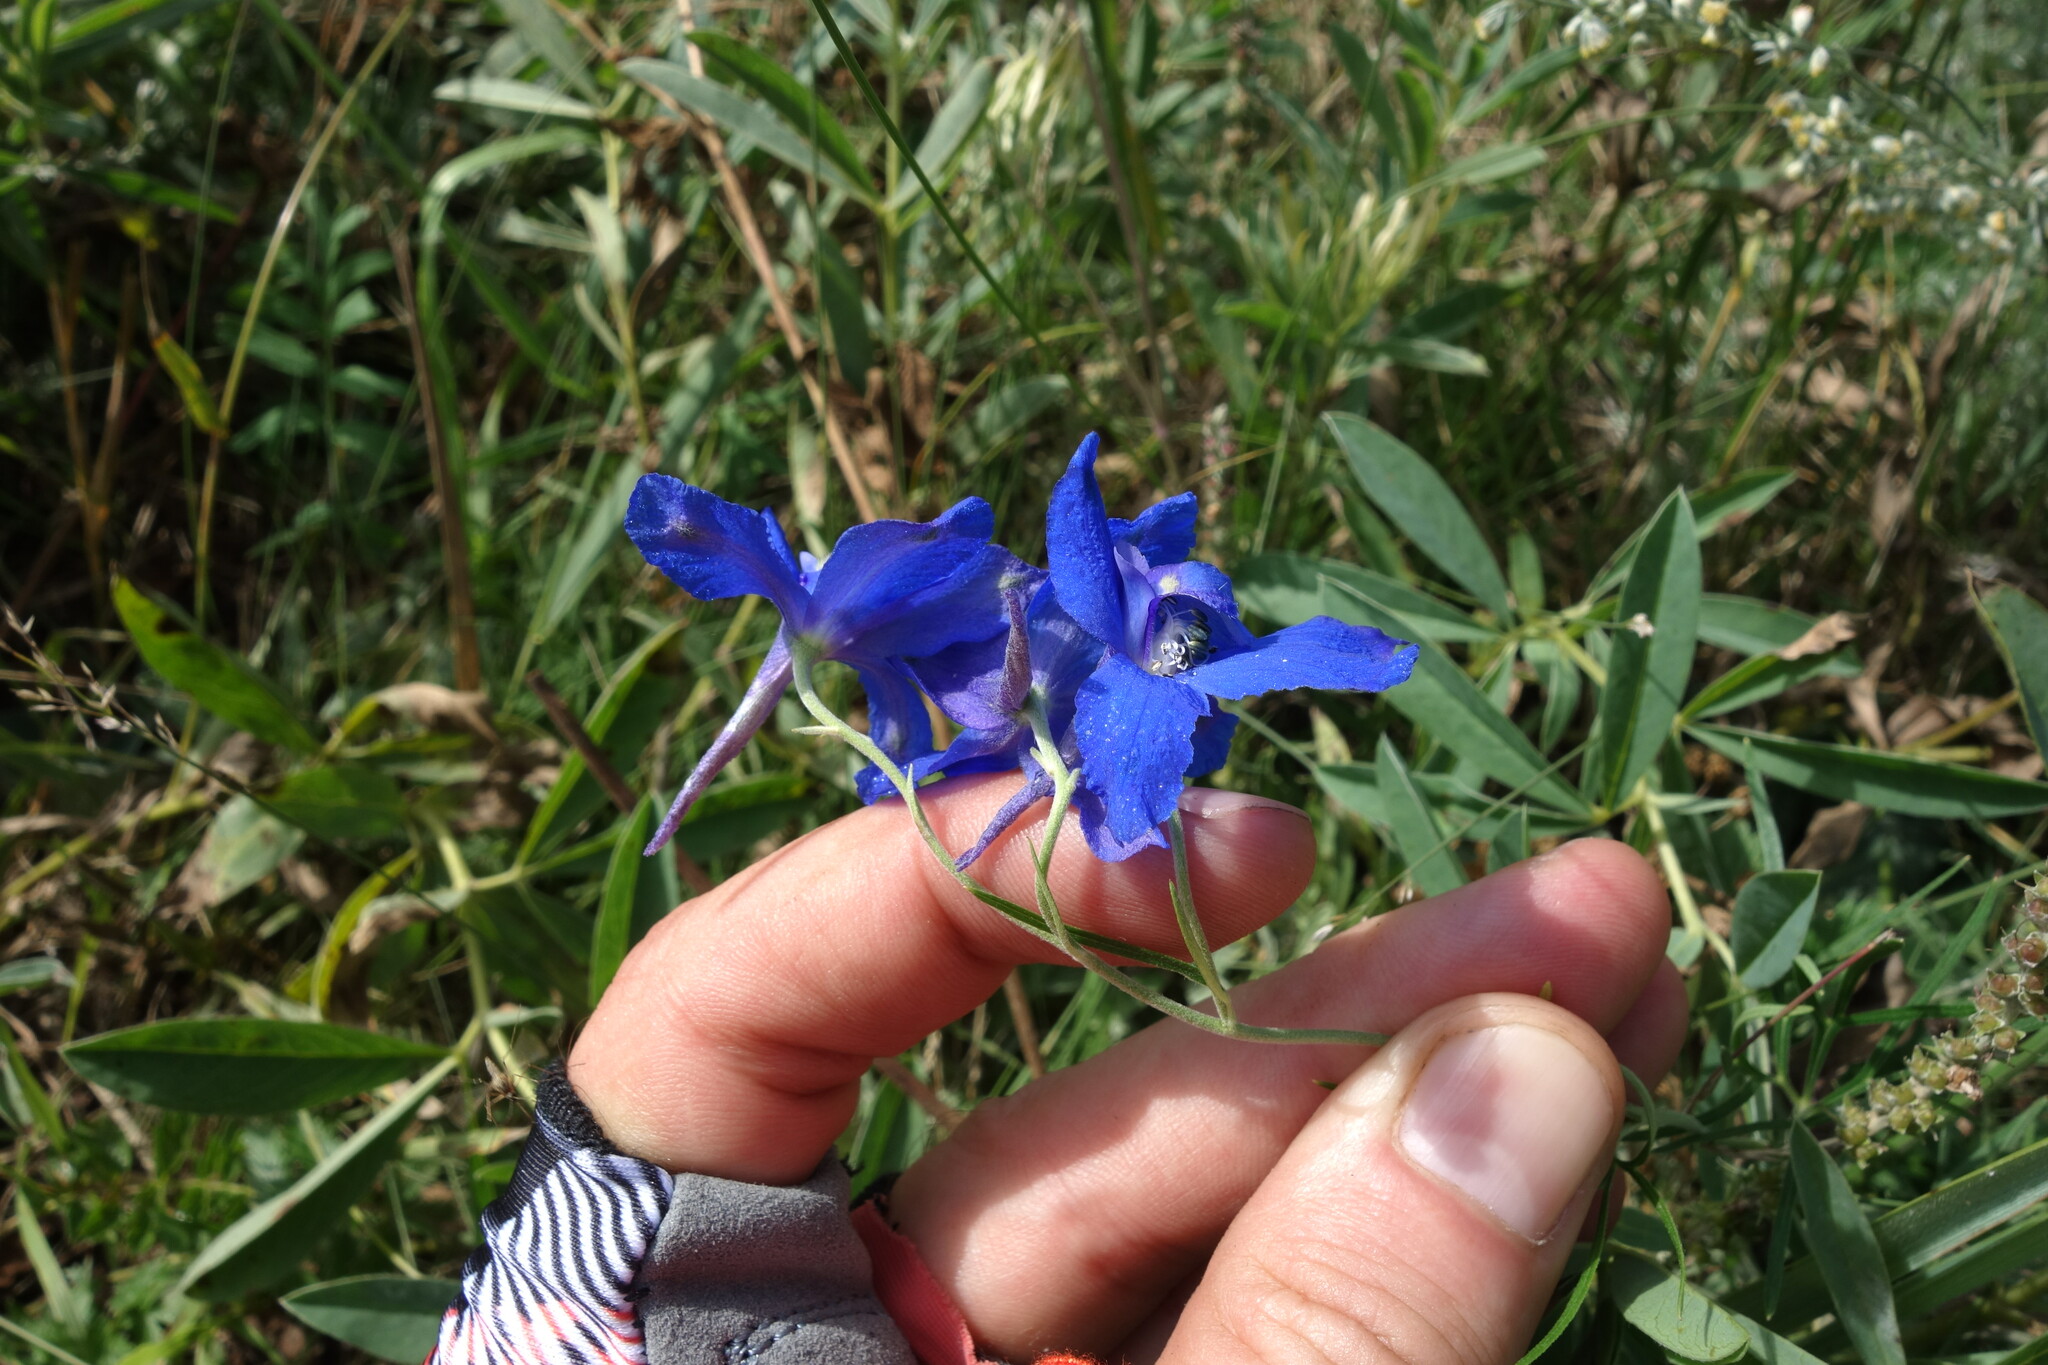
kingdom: Plantae
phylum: Tracheophyta
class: Magnoliopsida
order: Ranunculales
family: Ranunculaceae
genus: Delphinium
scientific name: Delphinium grandiflorum
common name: Siberian larkspur
